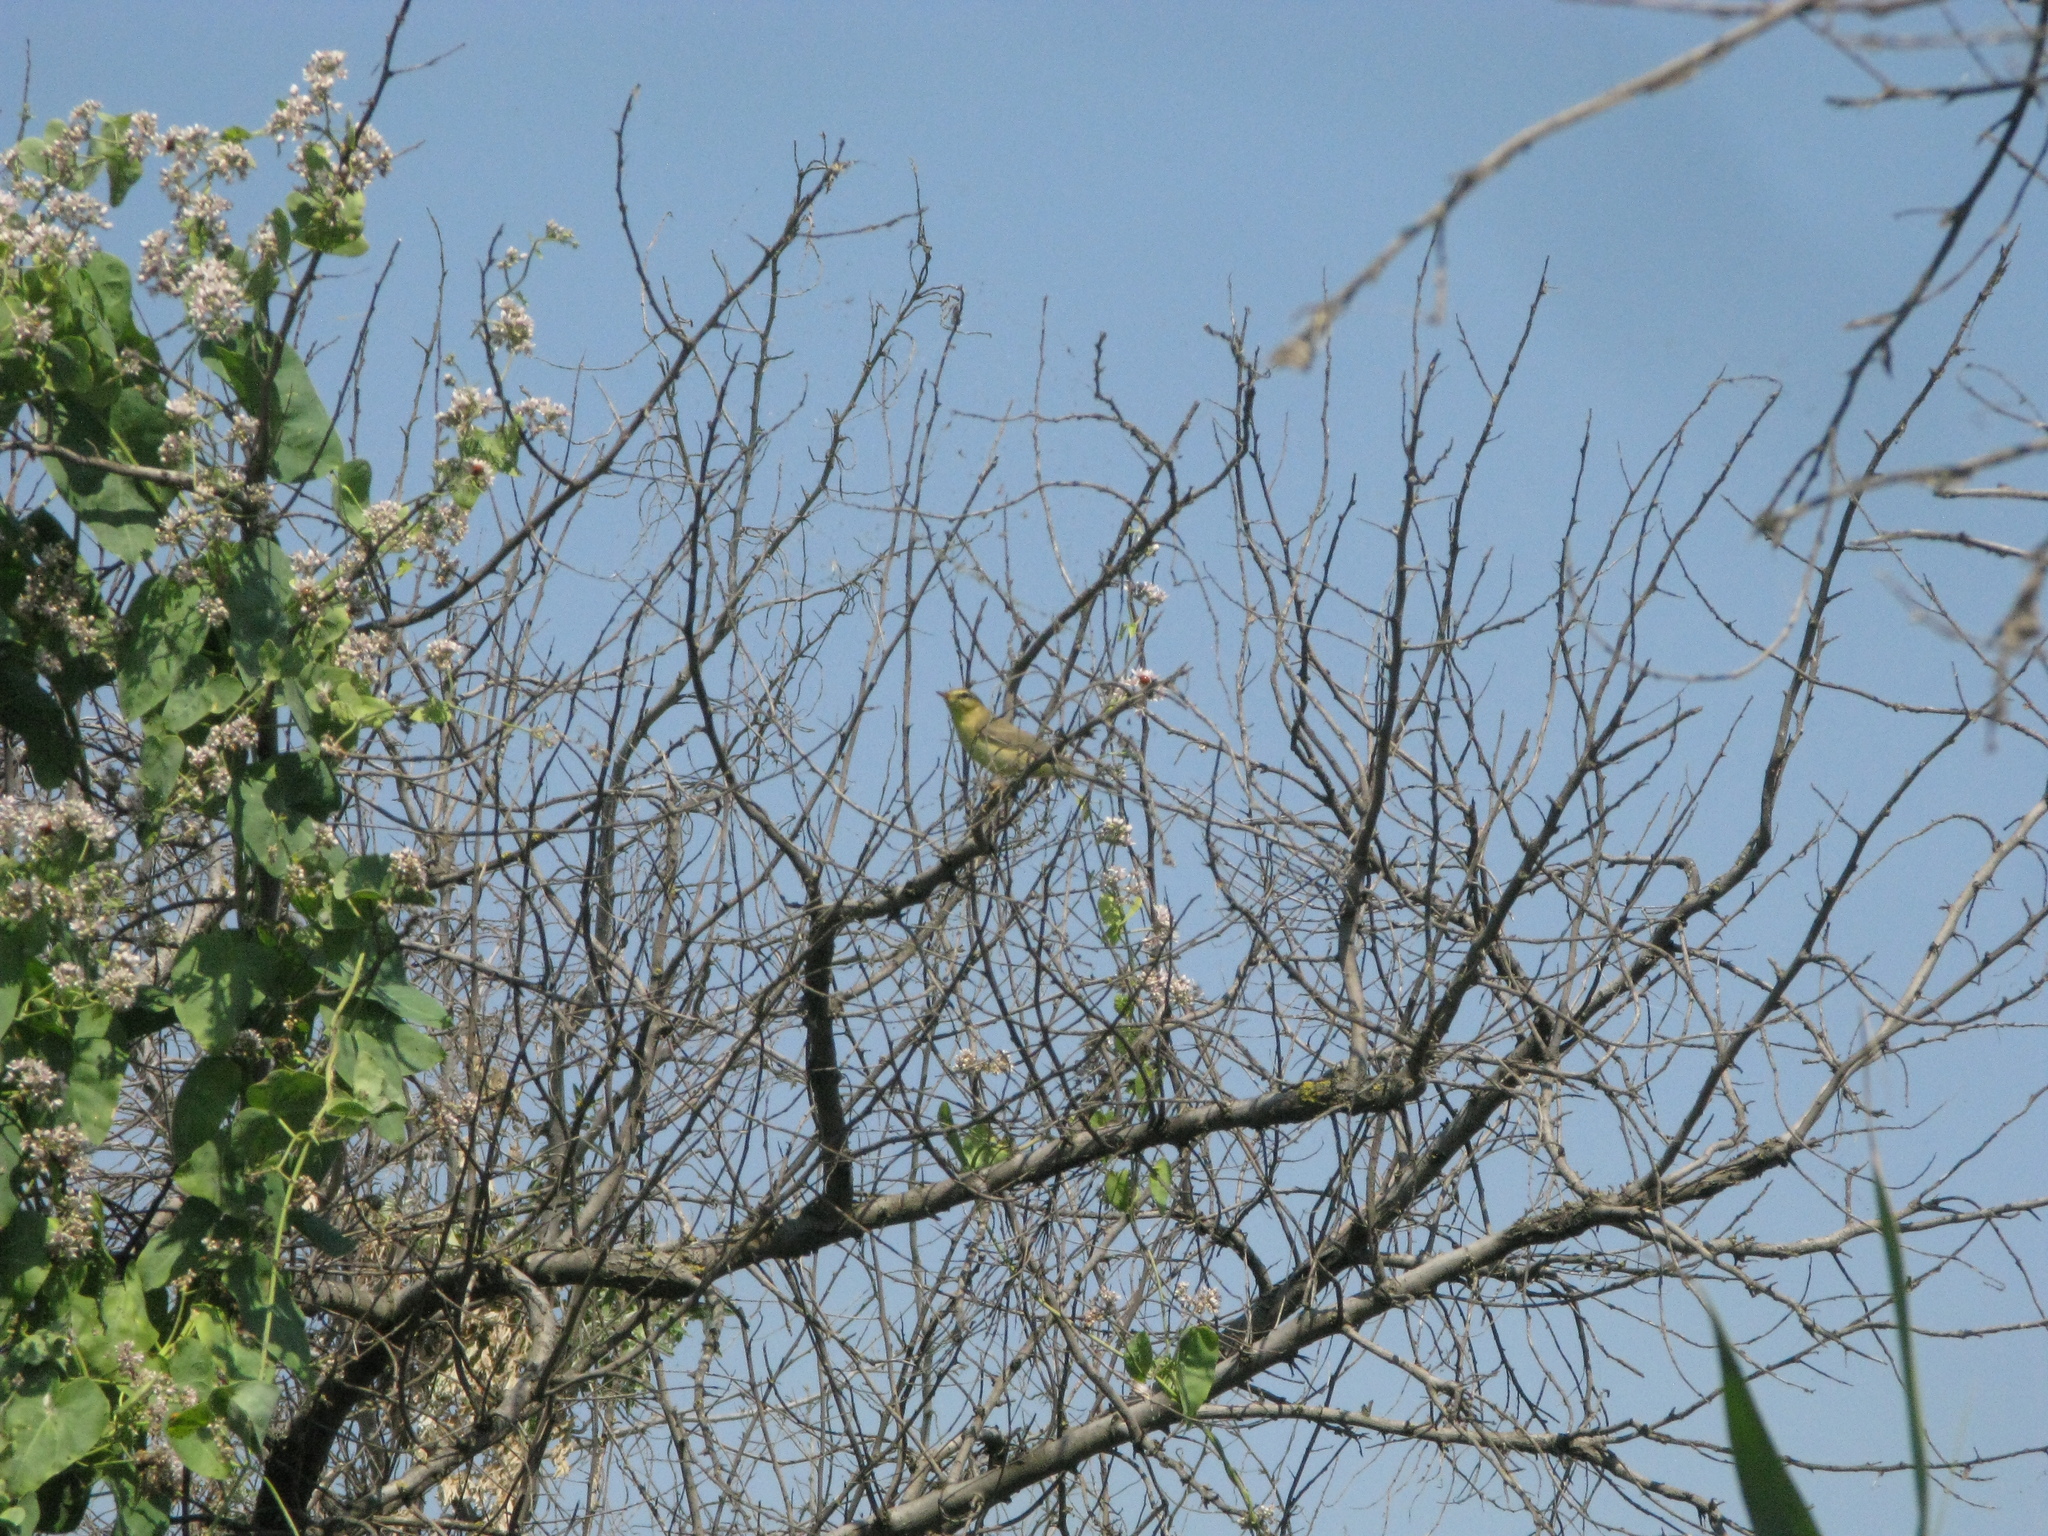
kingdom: Animalia
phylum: Chordata
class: Aves
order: Passeriformes
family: Phylloscopidae
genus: Phylloscopus
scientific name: Phylloscopus trochilus
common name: Willow warbler
